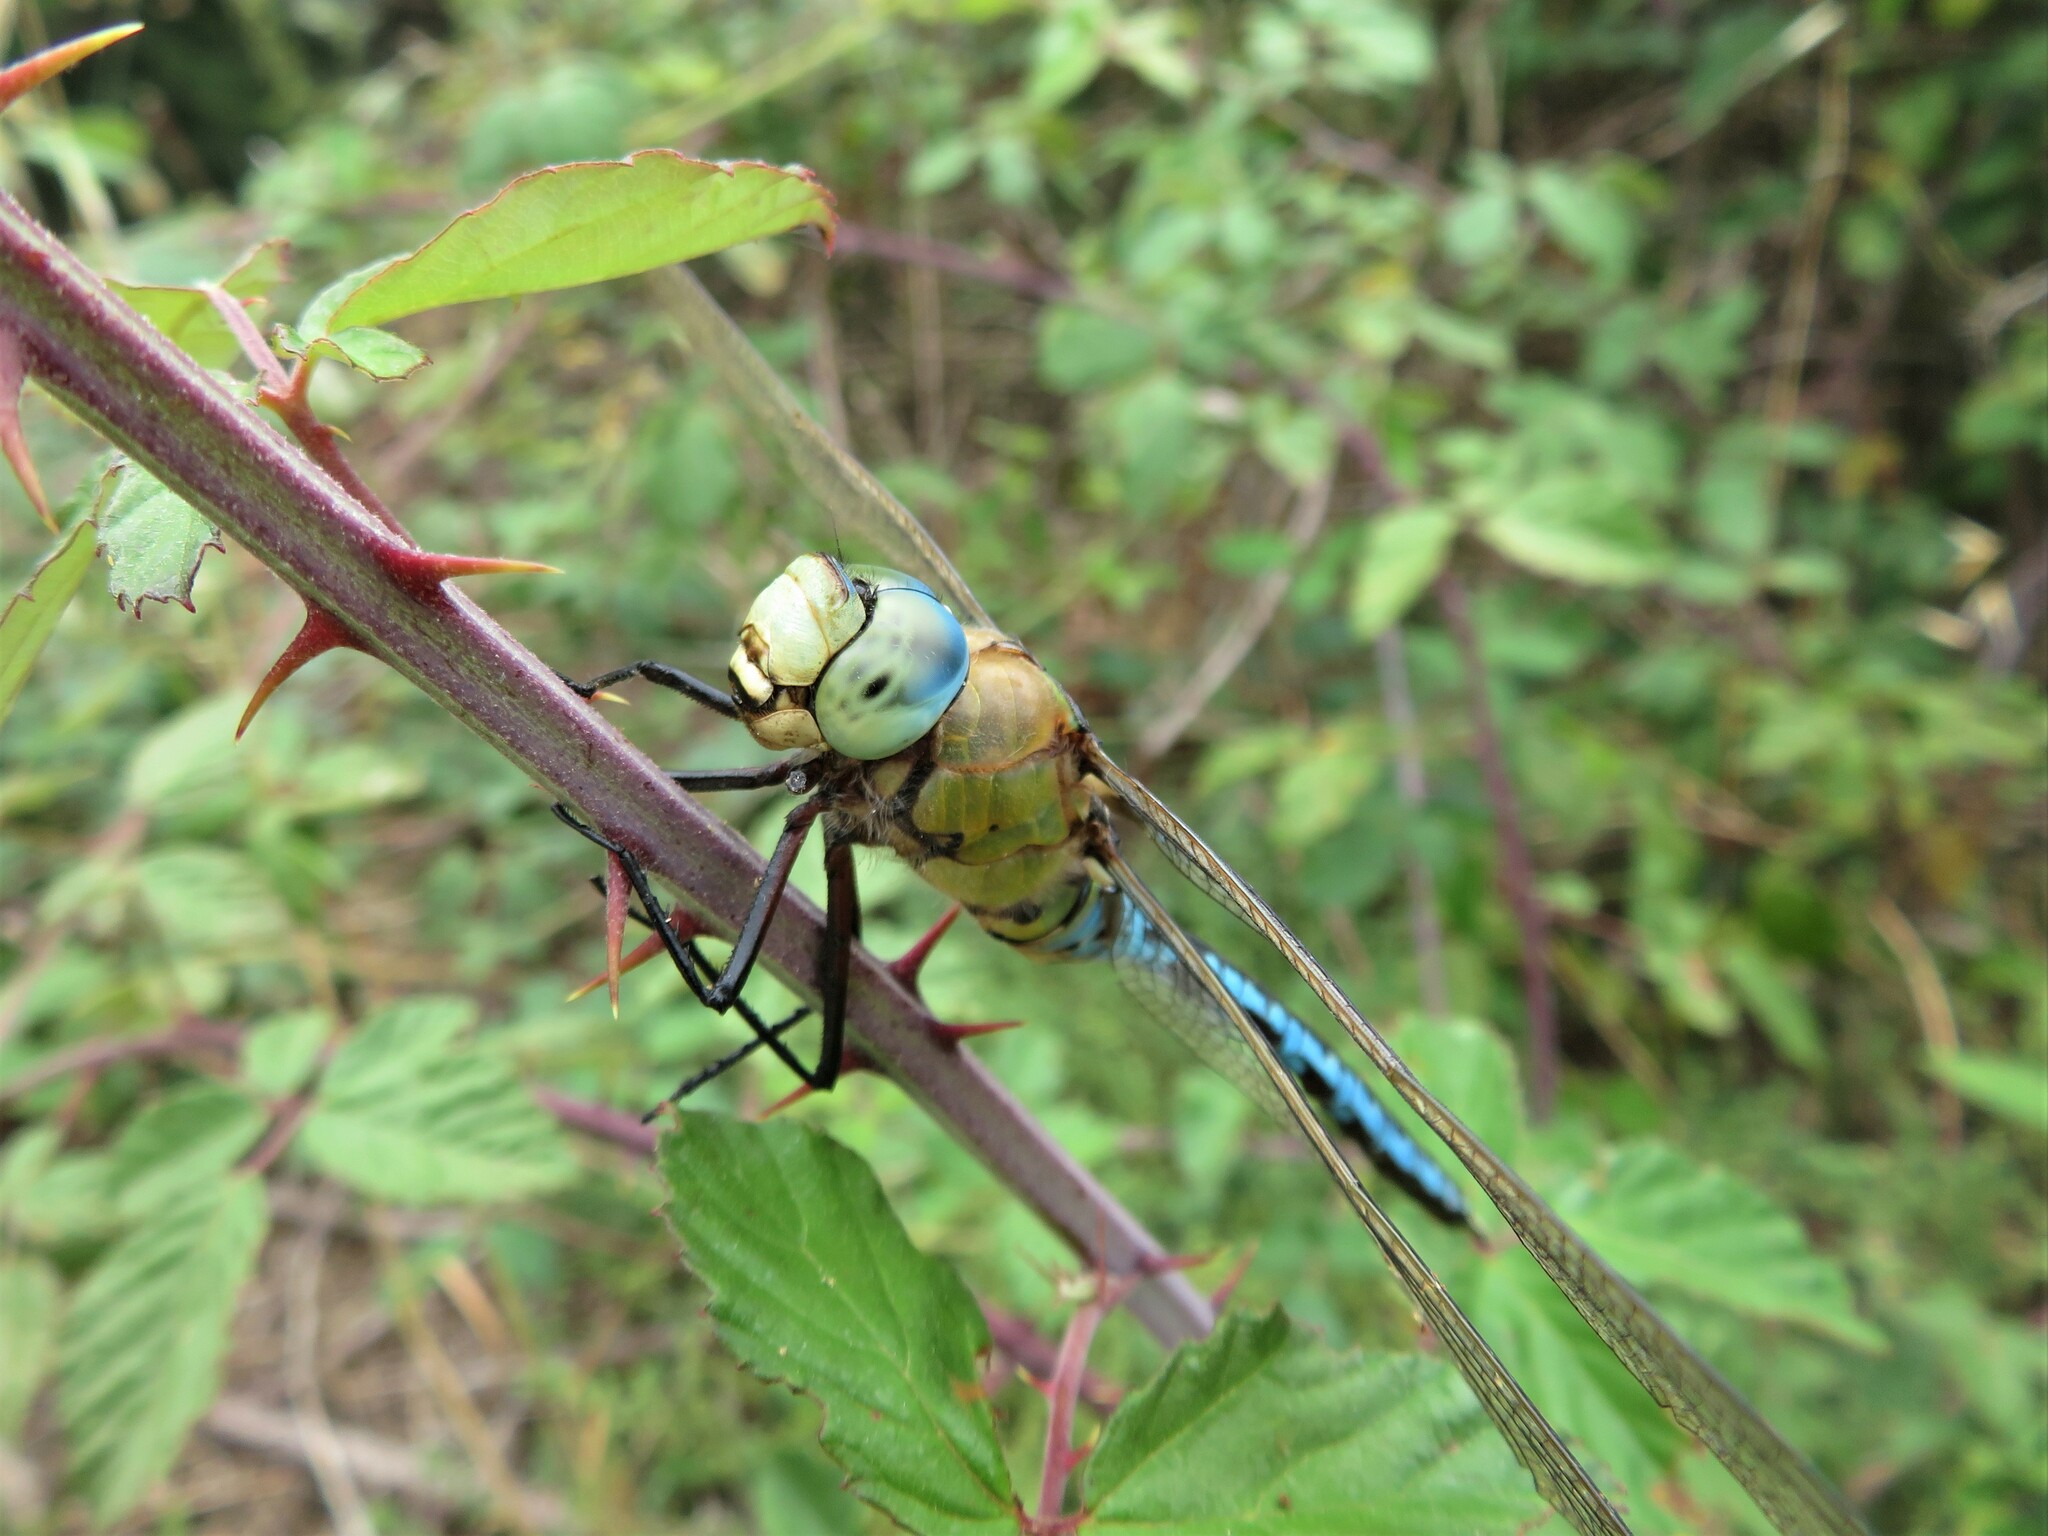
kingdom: Animalia
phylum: Arthropoda
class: Insecta
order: Odonata
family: Aeshnidae
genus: Anax
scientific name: Anax imperator
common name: Emperor dragonfly
